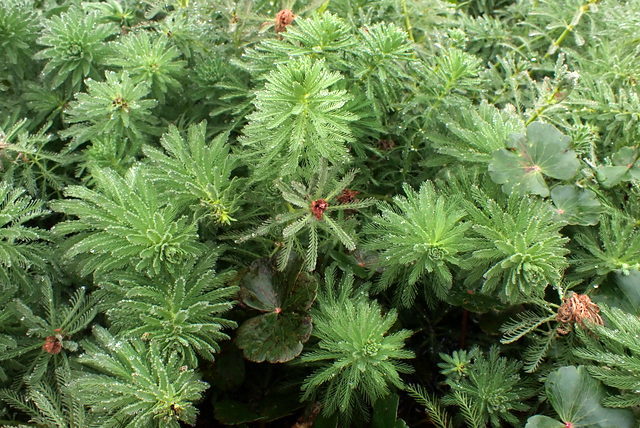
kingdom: Plantae
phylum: Tracheophyta
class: Magnoliopsida
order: Saxifragales
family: Haloragaceae
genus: Myriophyllum
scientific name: Myriophyllum aquaticum
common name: Parrot's feather
